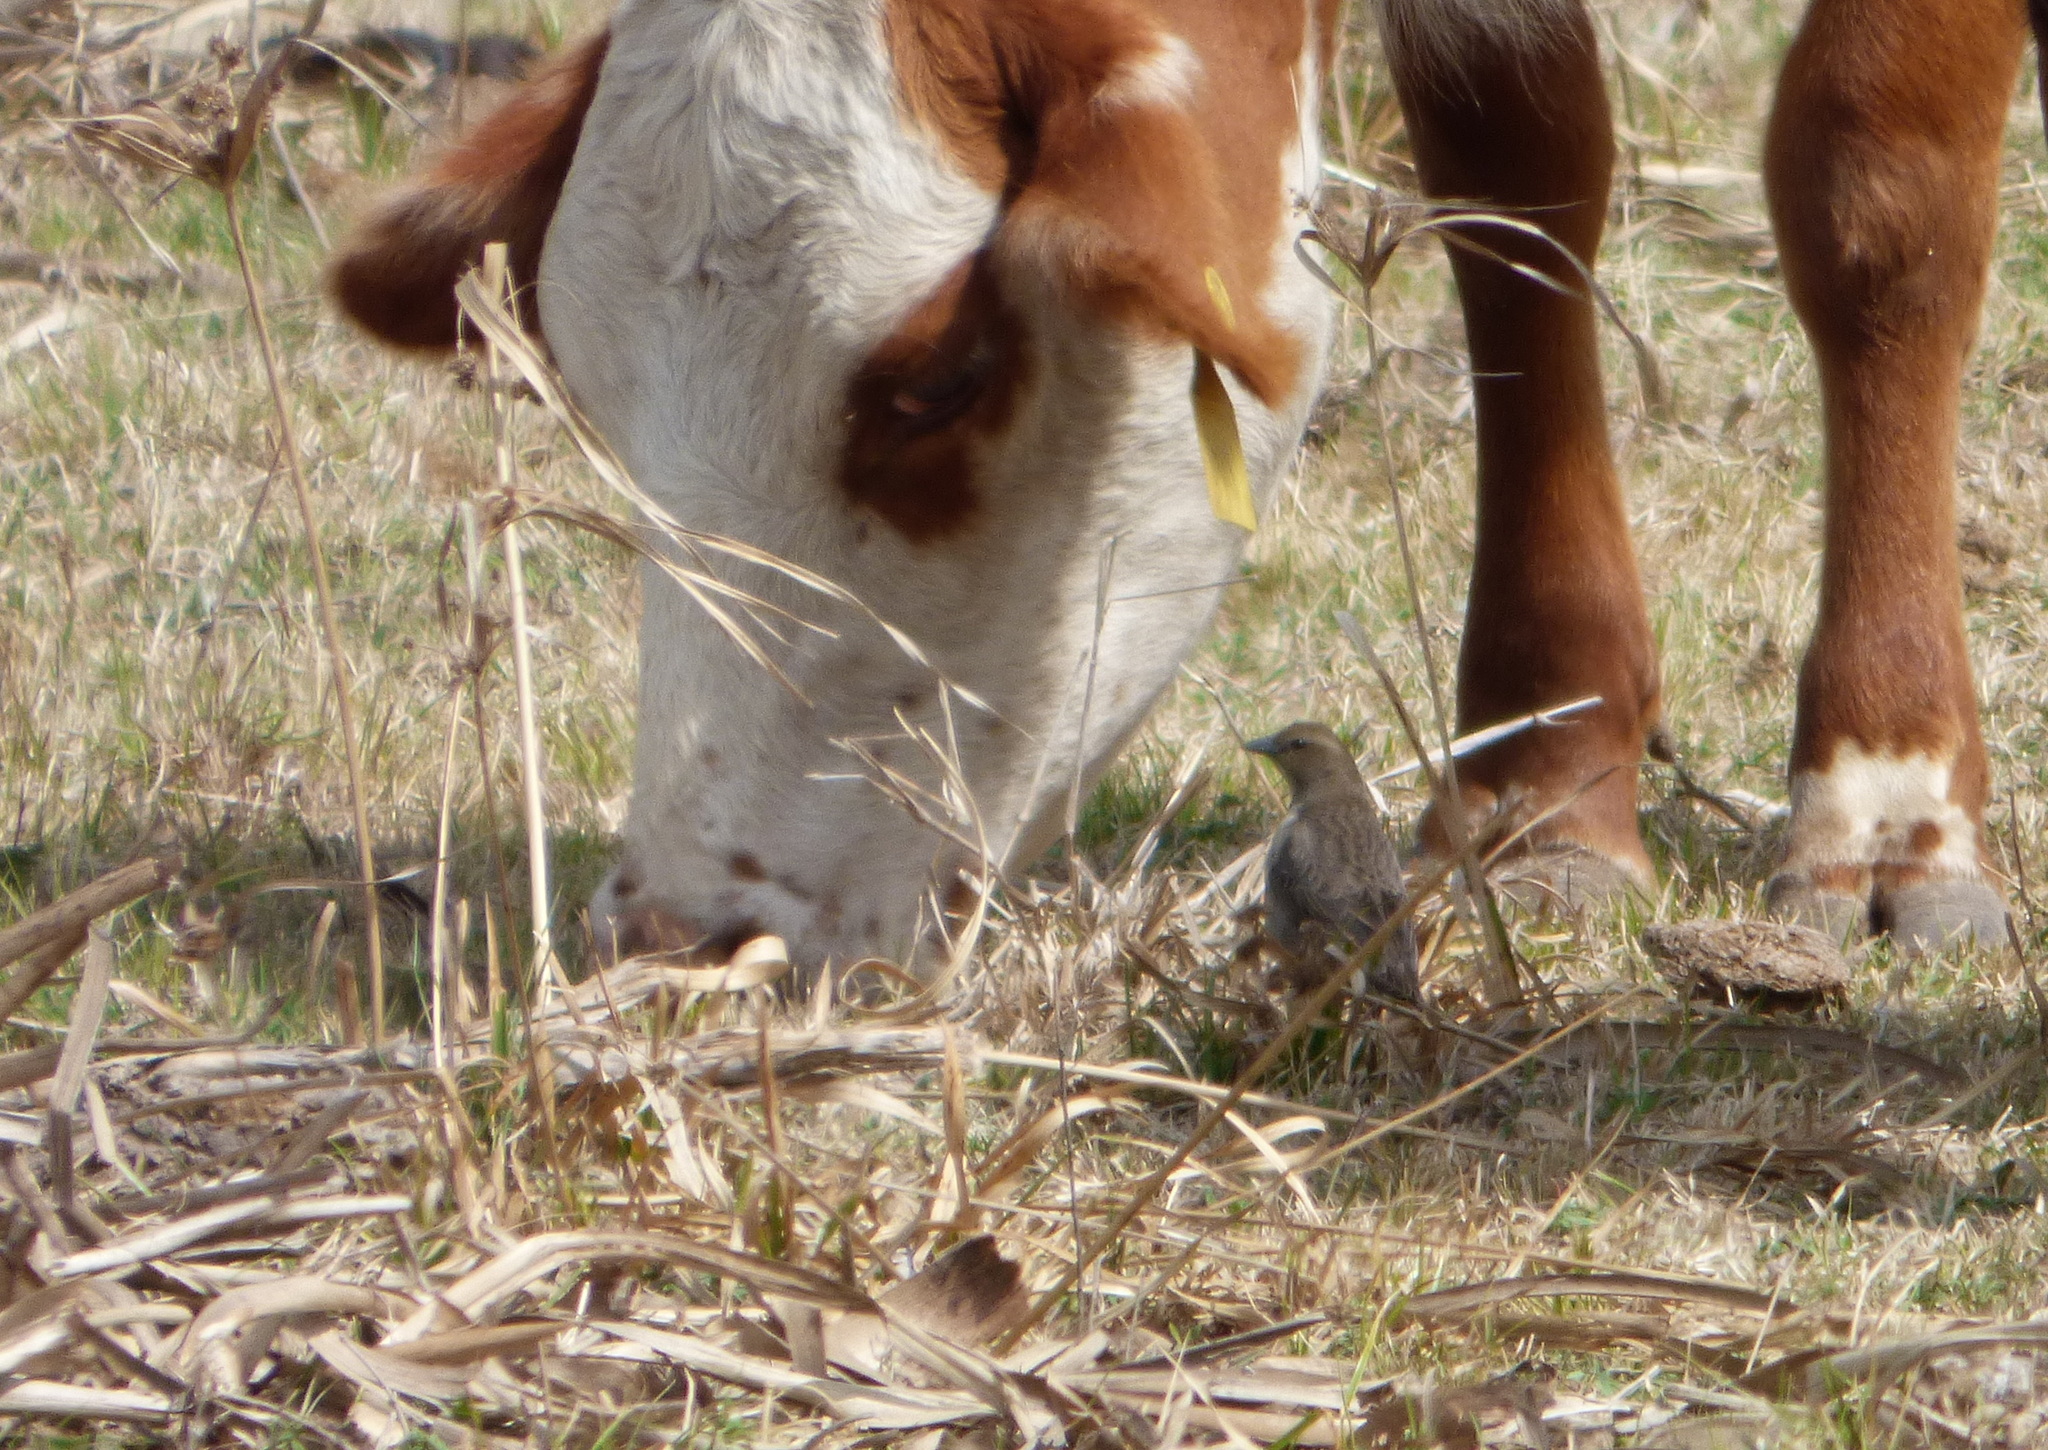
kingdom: Animalia
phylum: Chordata
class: Aves
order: Passeriformes
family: Icteridae
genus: Molothrus
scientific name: Molothrus bonariensis
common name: Shiny cowbird
